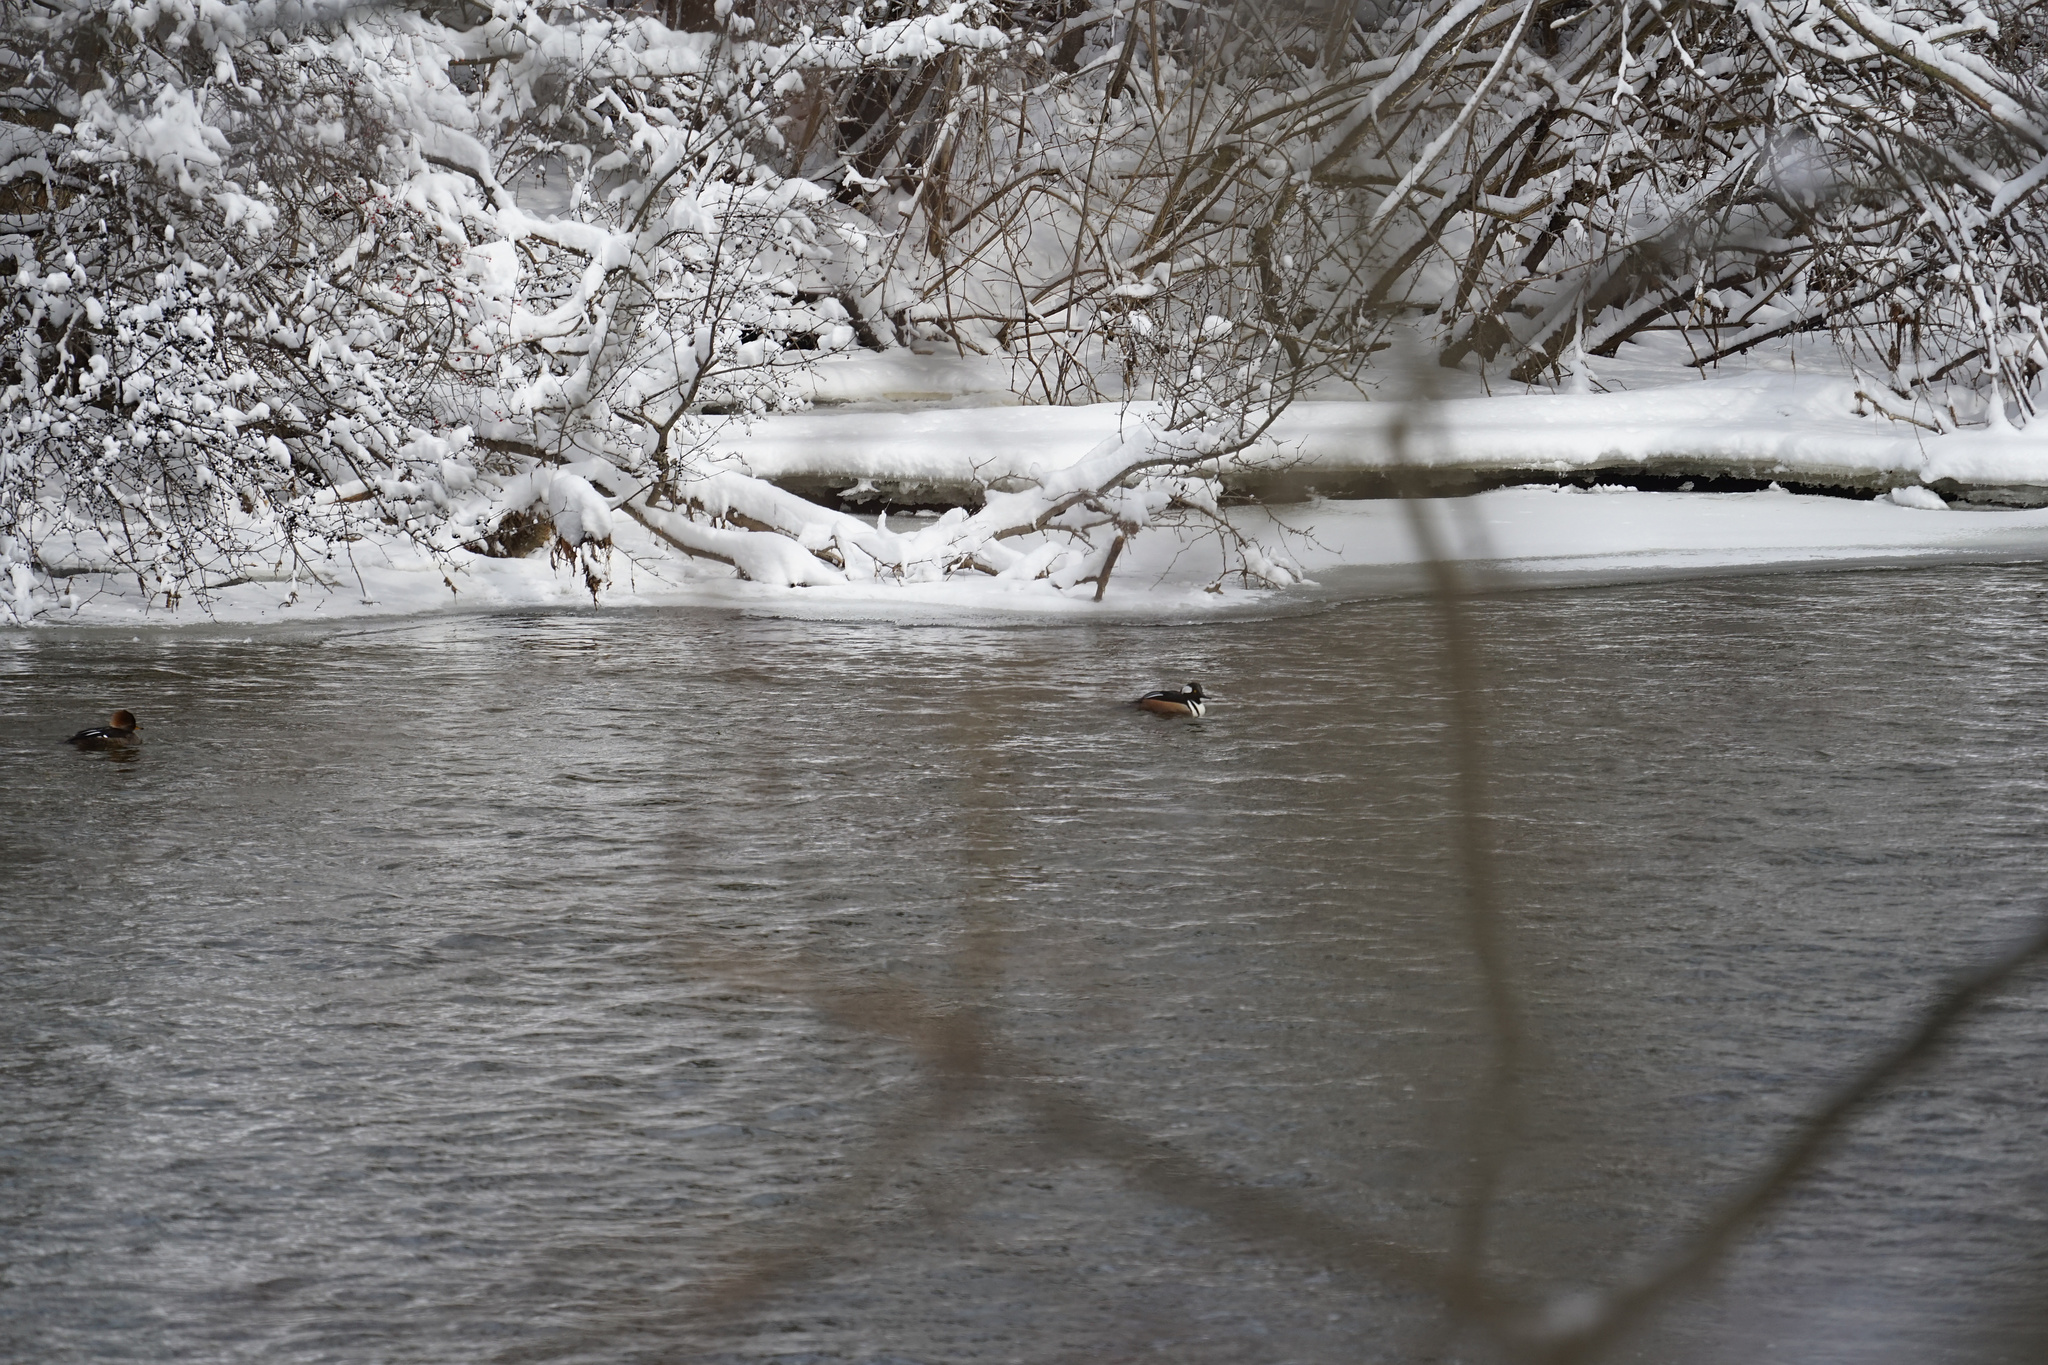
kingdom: Animalia
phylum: Chordata
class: Aves
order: Anseriformes
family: Anatidae
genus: Lophodytes
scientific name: Lophodytes cucullatus
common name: Hooded merganser
